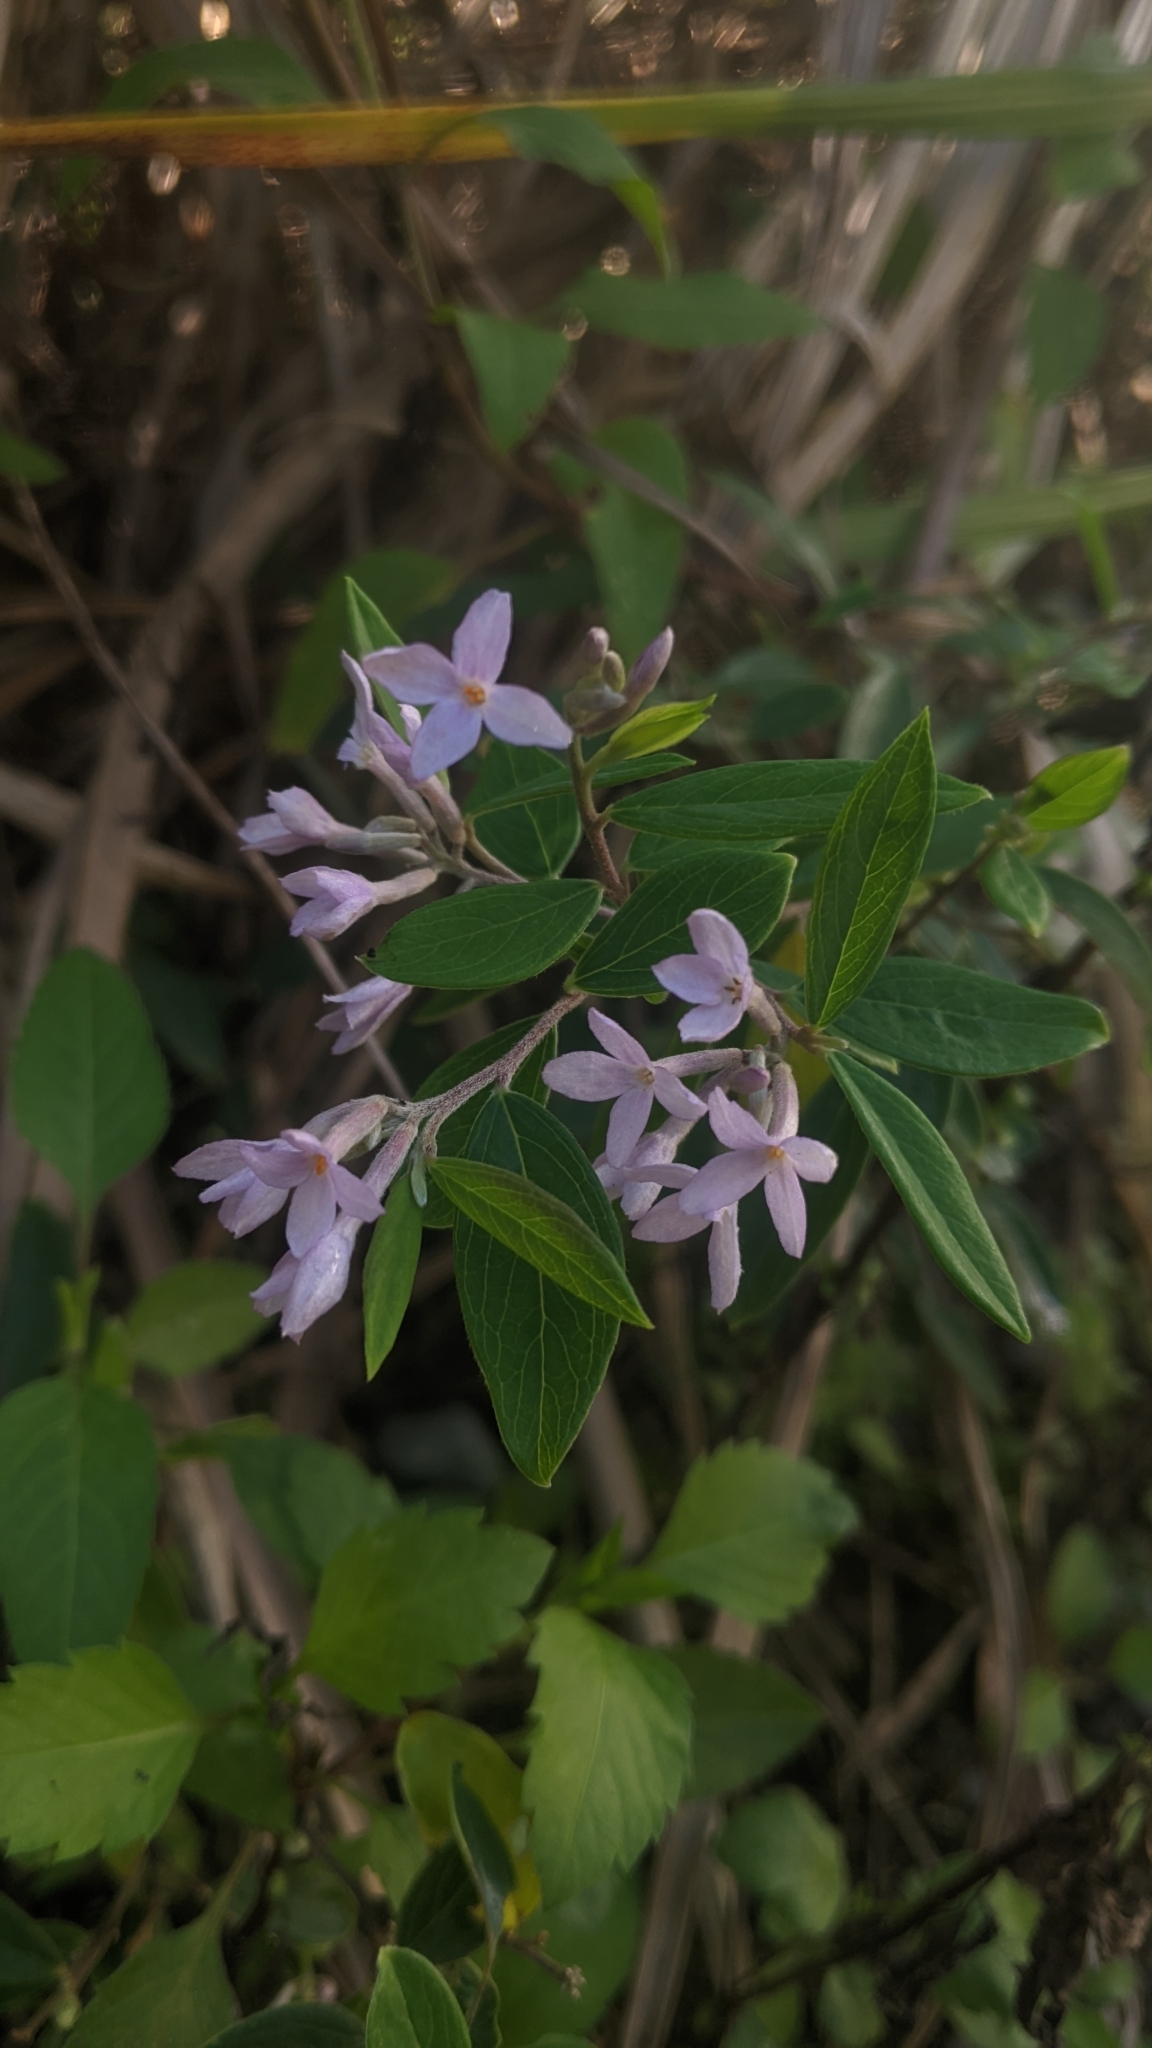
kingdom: Plantae
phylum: Tracheophyta
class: Magnoliopsida
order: Malvales
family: Thymelaeaceae
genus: Wikstroemia
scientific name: Wikstroemia genkwa
